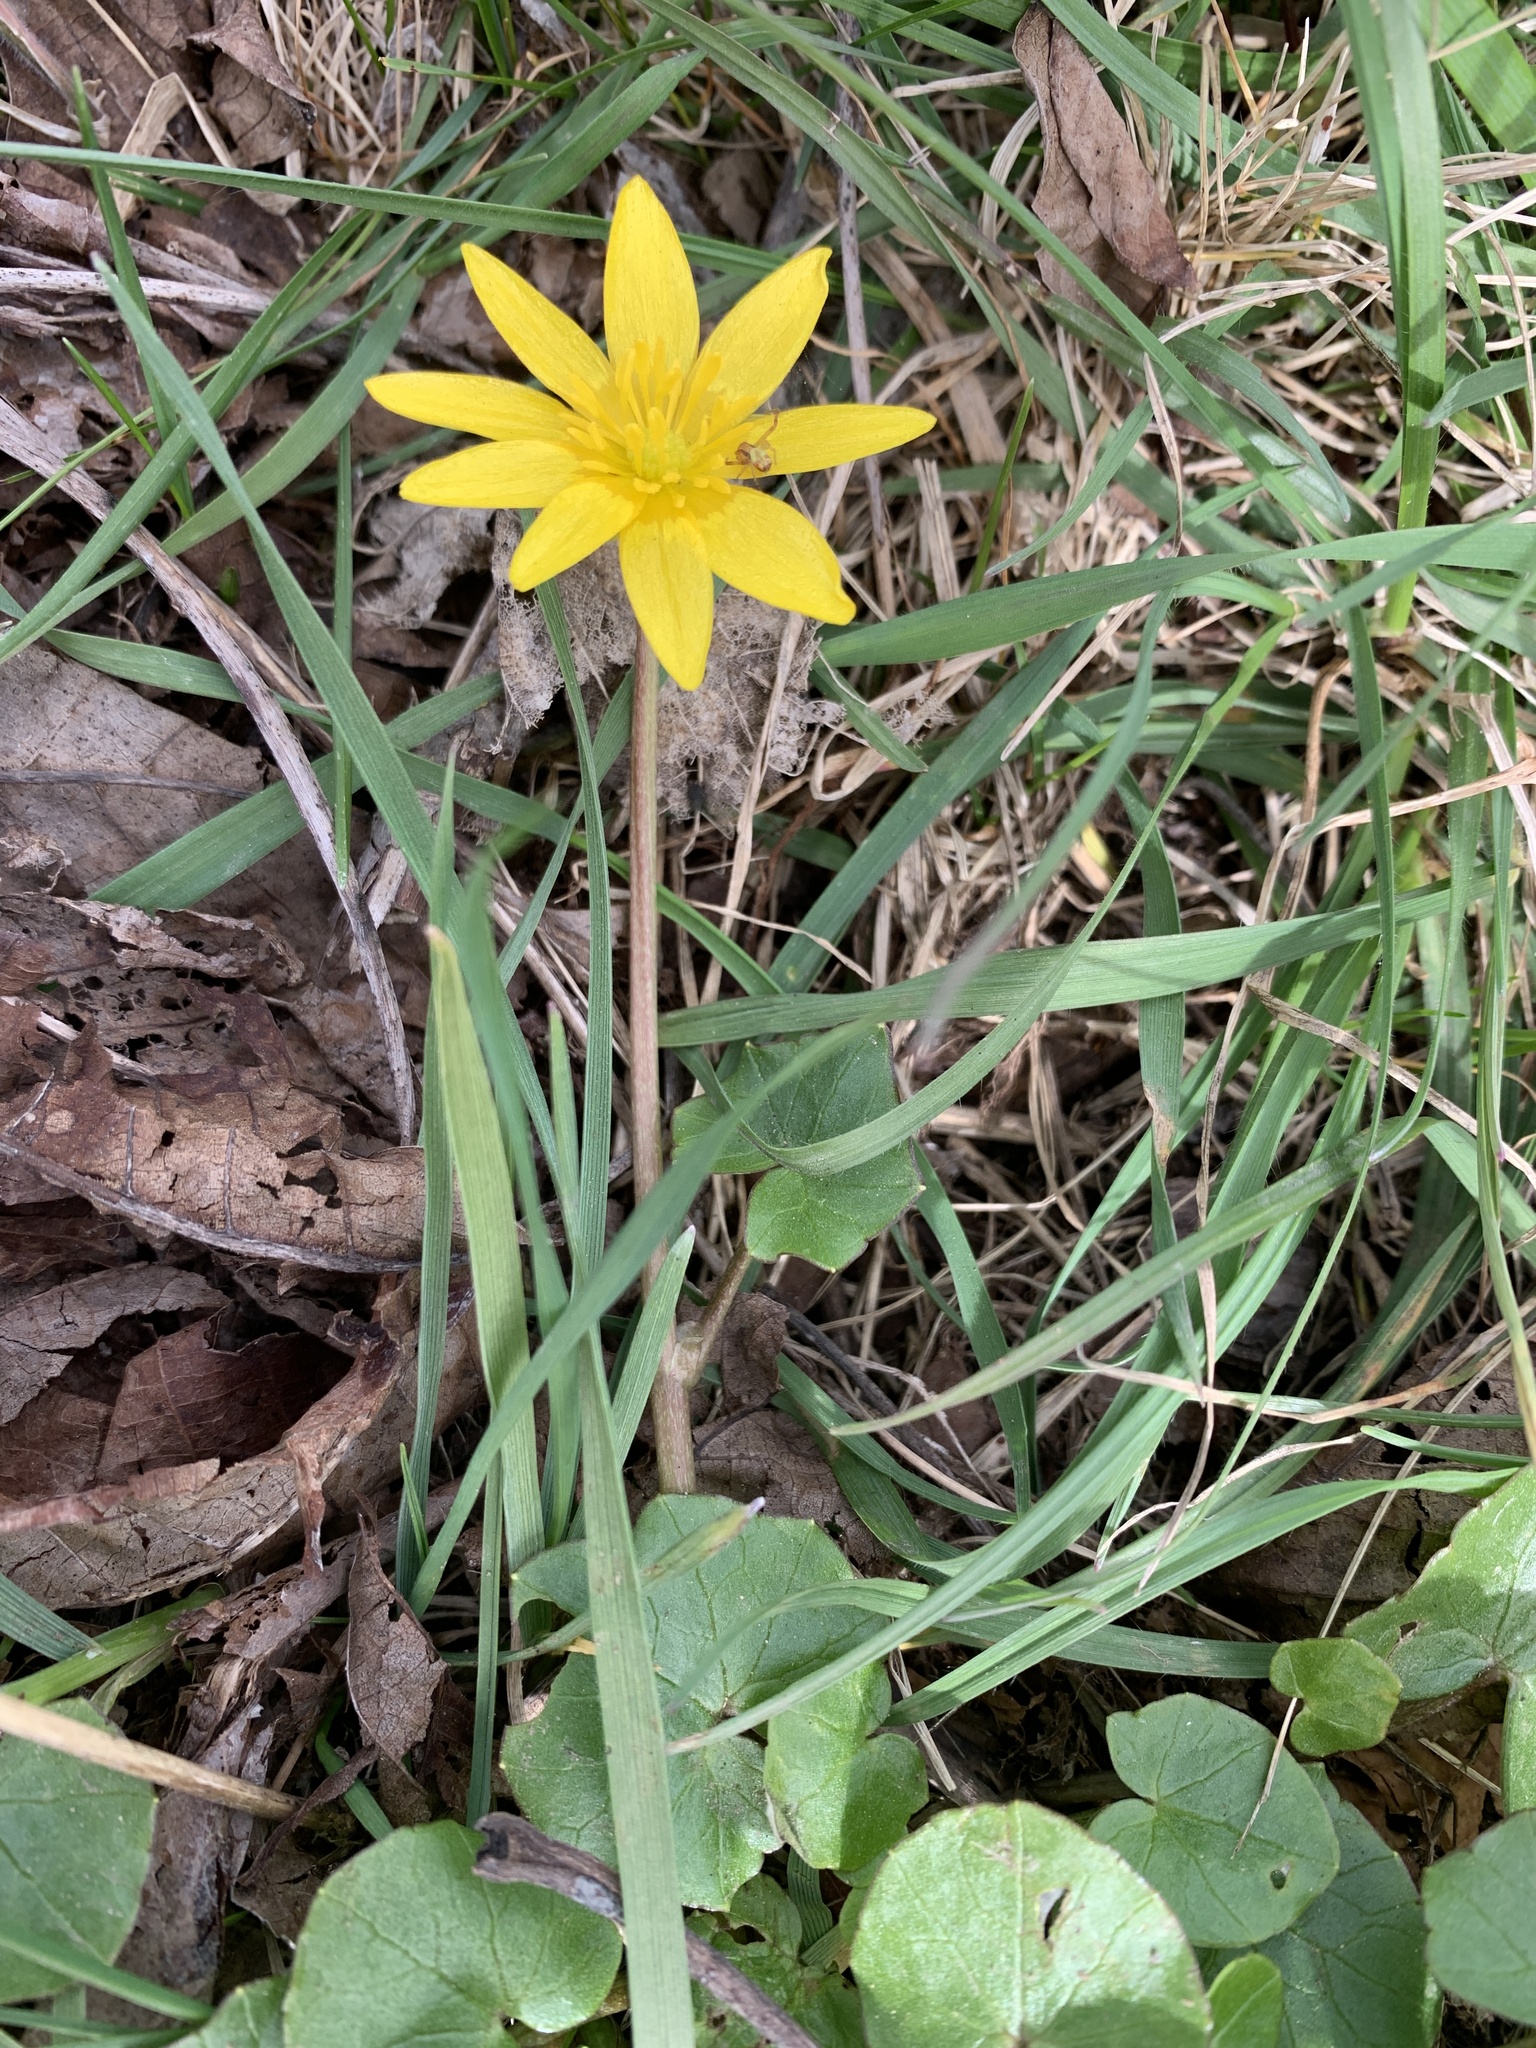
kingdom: Plantae
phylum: Tracheophyta
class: Magnoliopsida
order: Ranunculales
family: Ranunculaceae
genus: Ficaria
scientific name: Ficaria verna
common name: Lesser celandine
